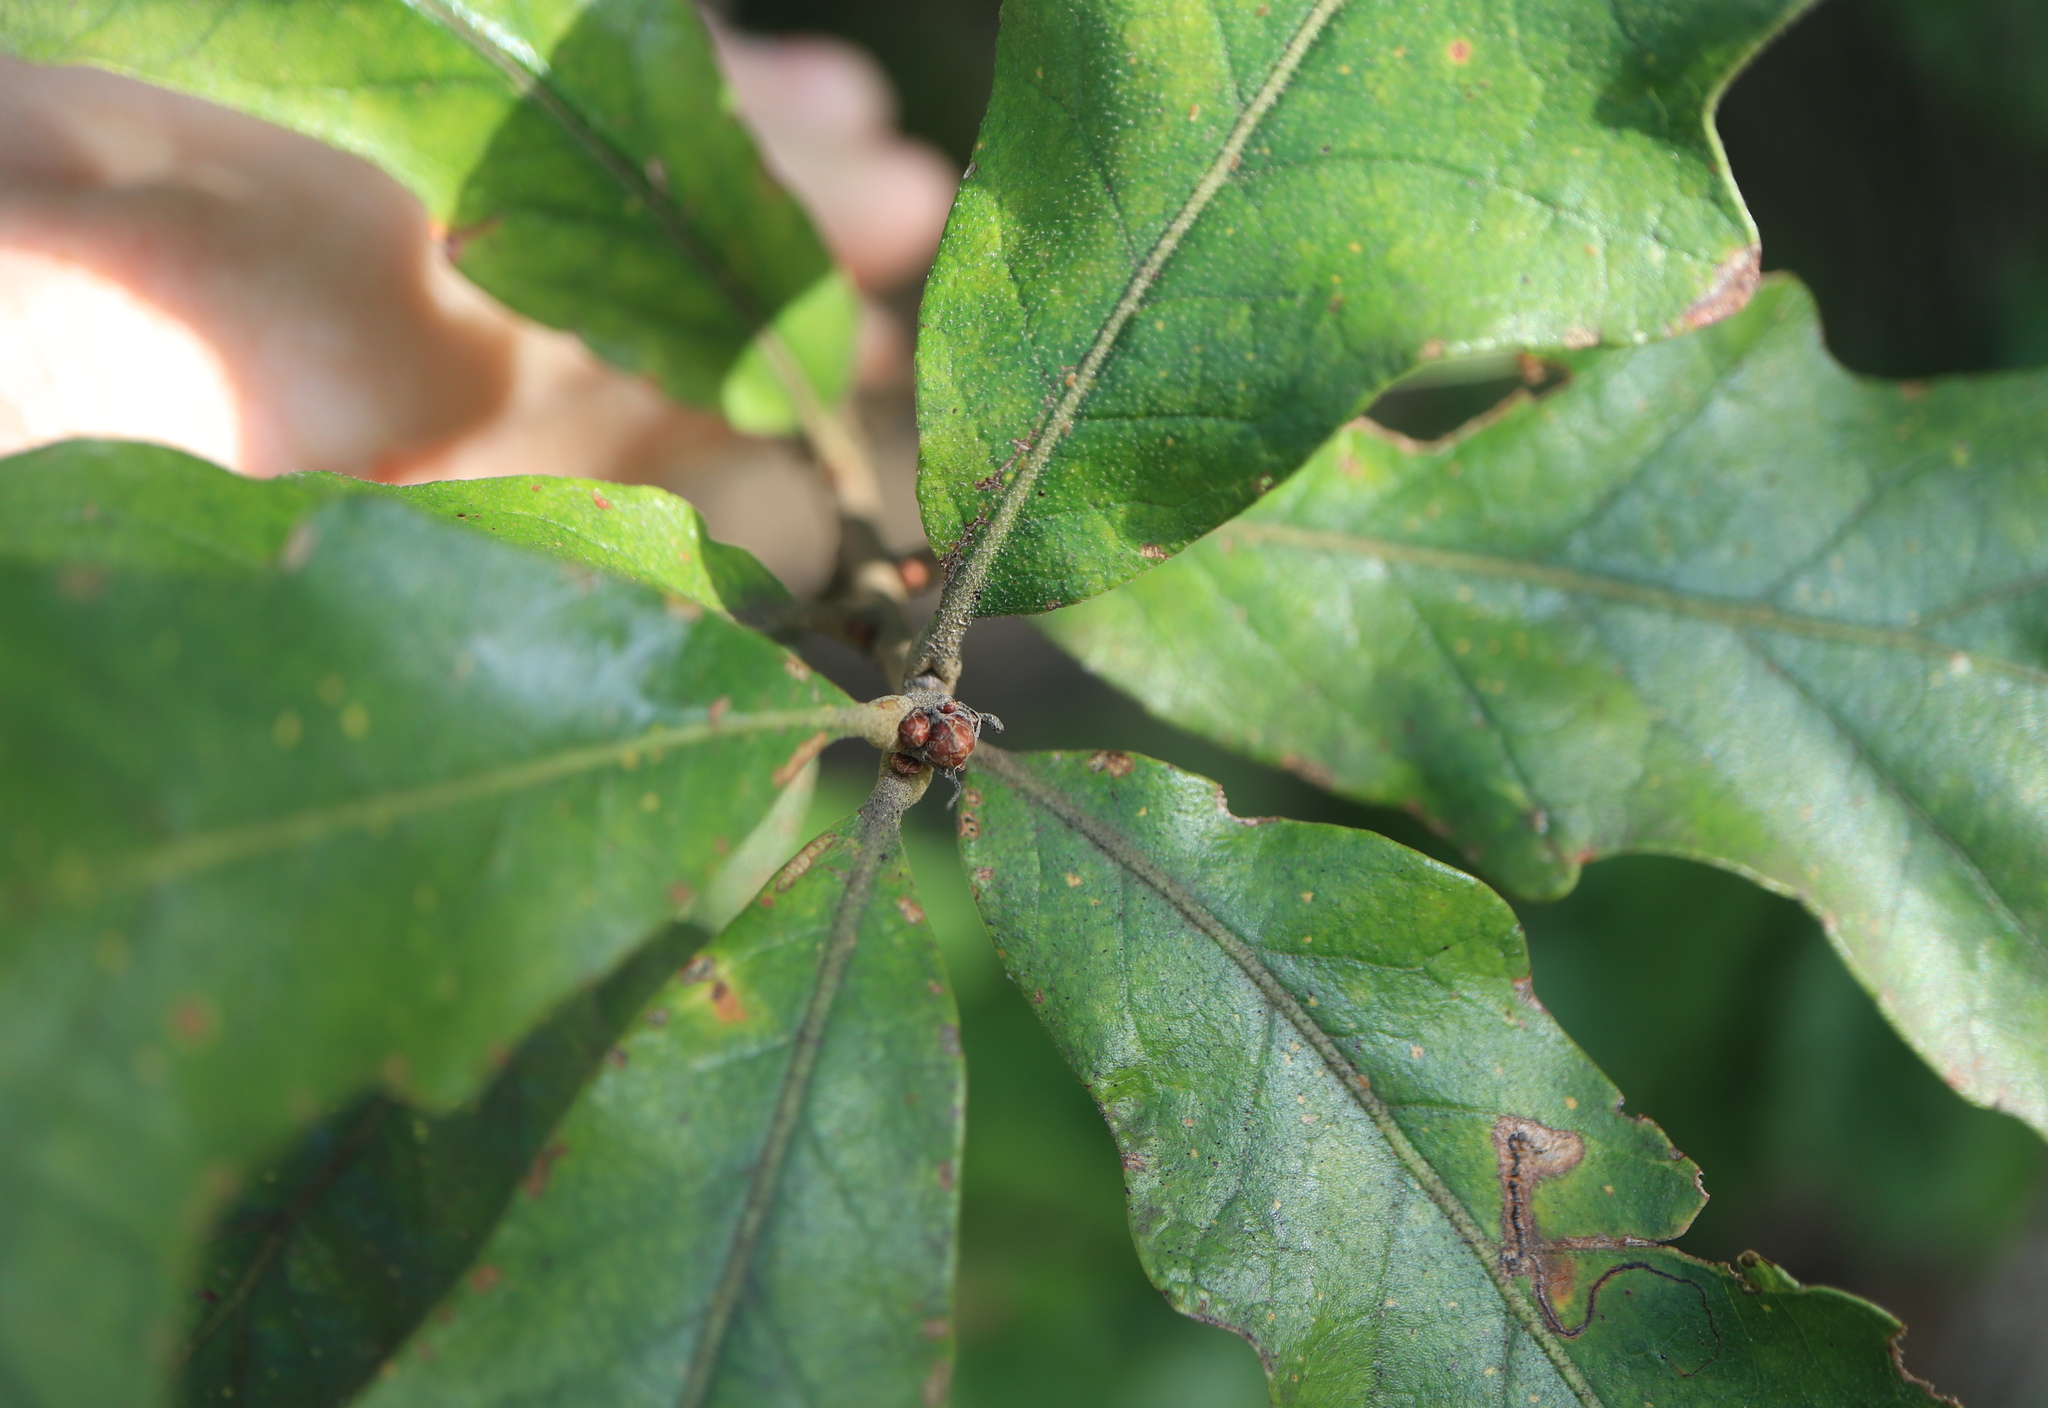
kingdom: Plantae
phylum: Tracheophyta
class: Magnoliopsida
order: Fagales
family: Fagaceae
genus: Quercus
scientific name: Quercus stellata
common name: Post oak
